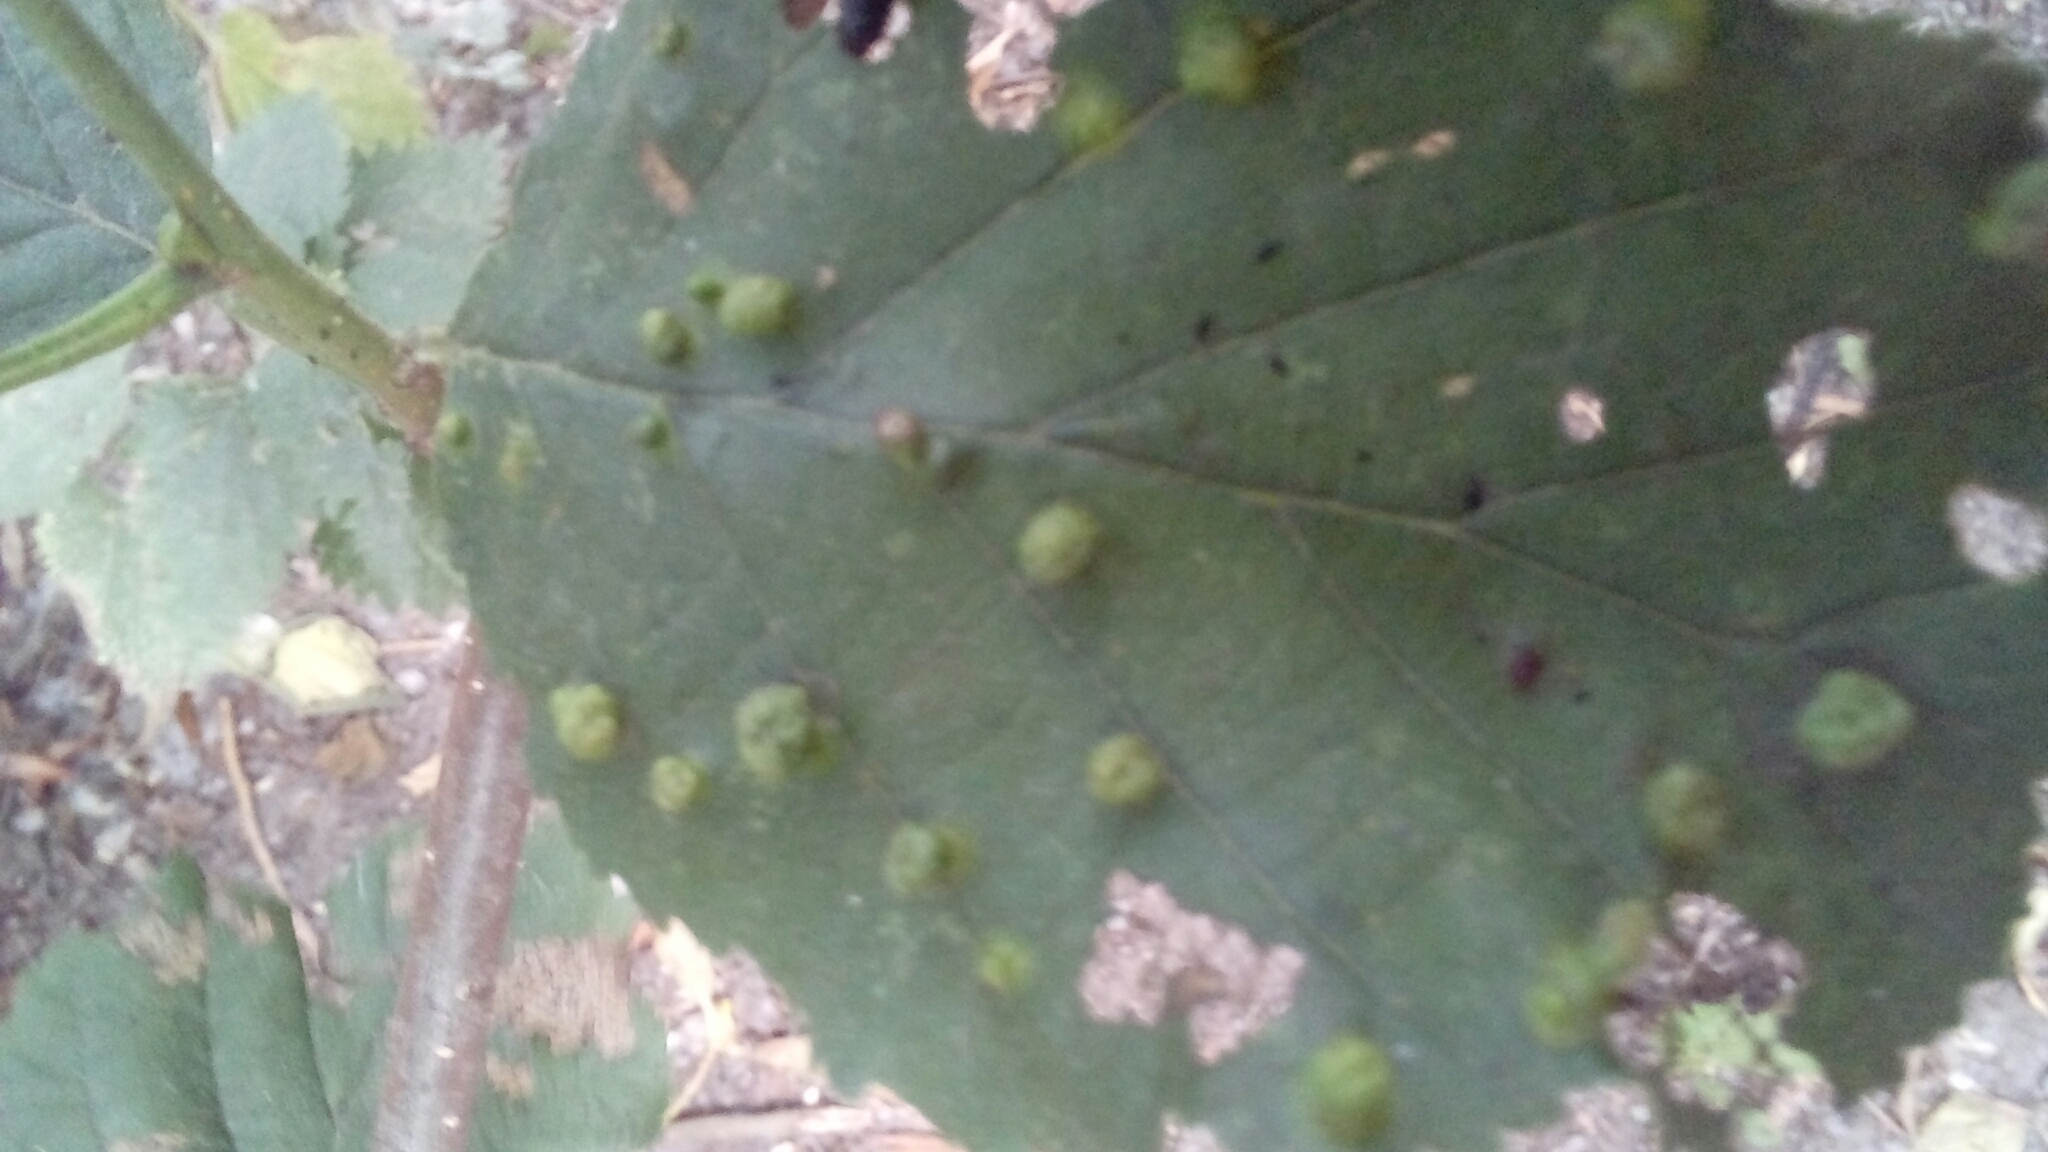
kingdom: Animalia
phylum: Arthropoda
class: Arachnida
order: Trombidiformes
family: Eriophyidae
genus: Eriophyes
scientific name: Eriophyes laevis
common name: Alder leaf gall mite
